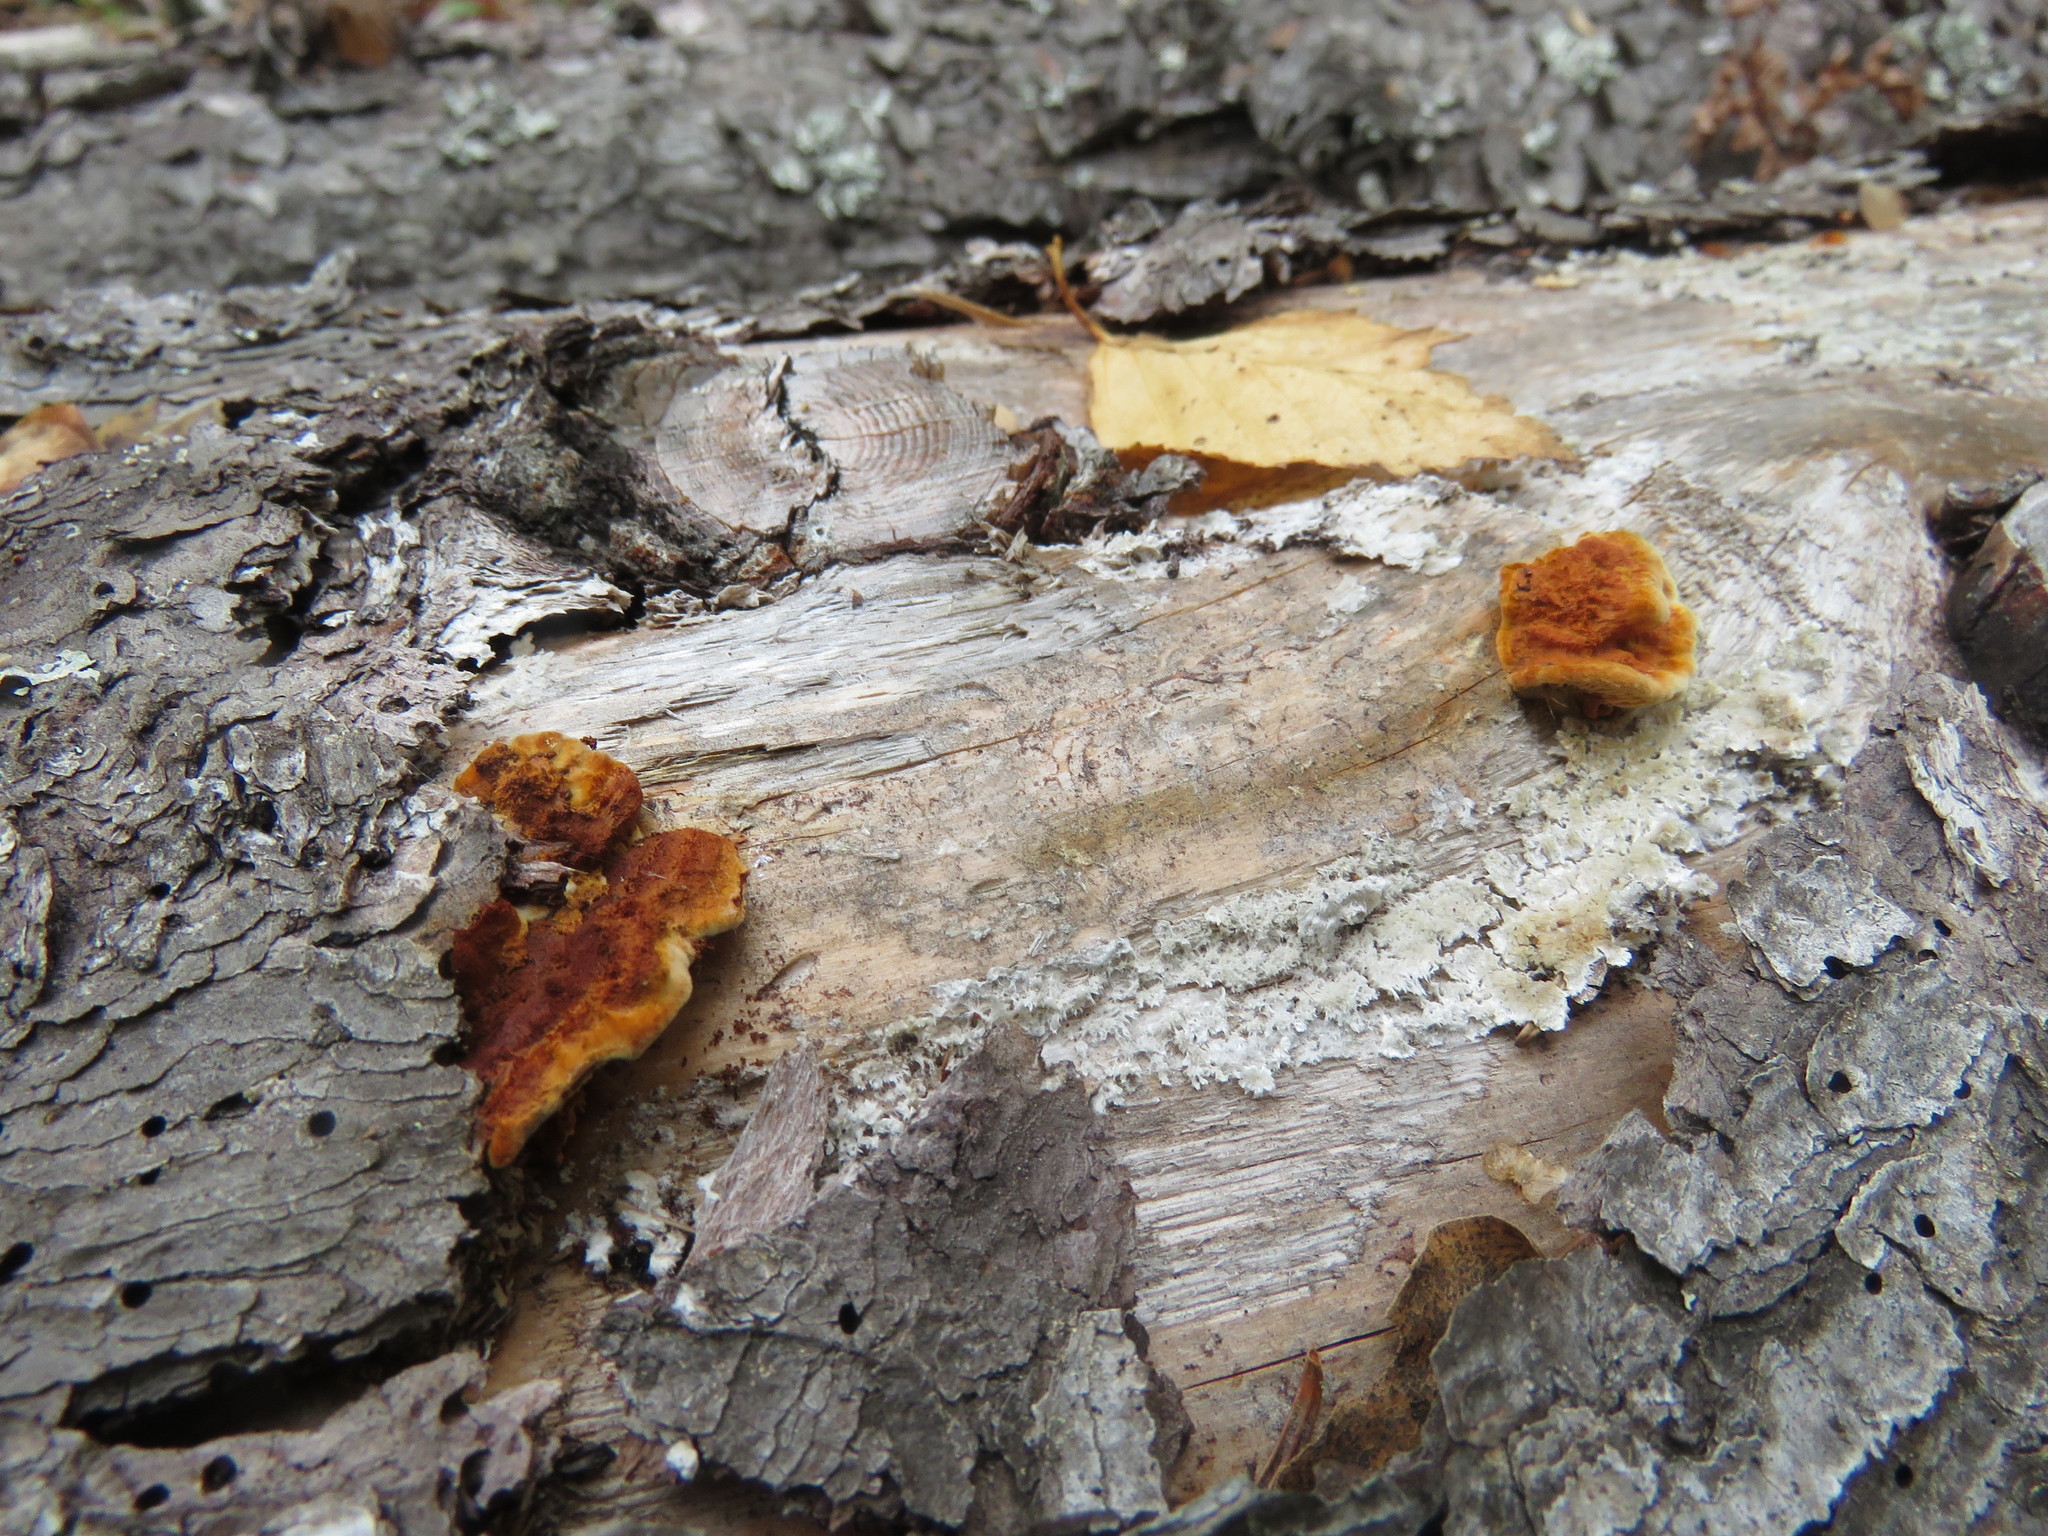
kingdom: Fungi
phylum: Basidiomycota
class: Agaricomycetes
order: Gloeophyllales
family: Gloeophyllaceae
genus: Gloeophyllum
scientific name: Gloeophyllum sepiarium
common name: Conifer mazegill
